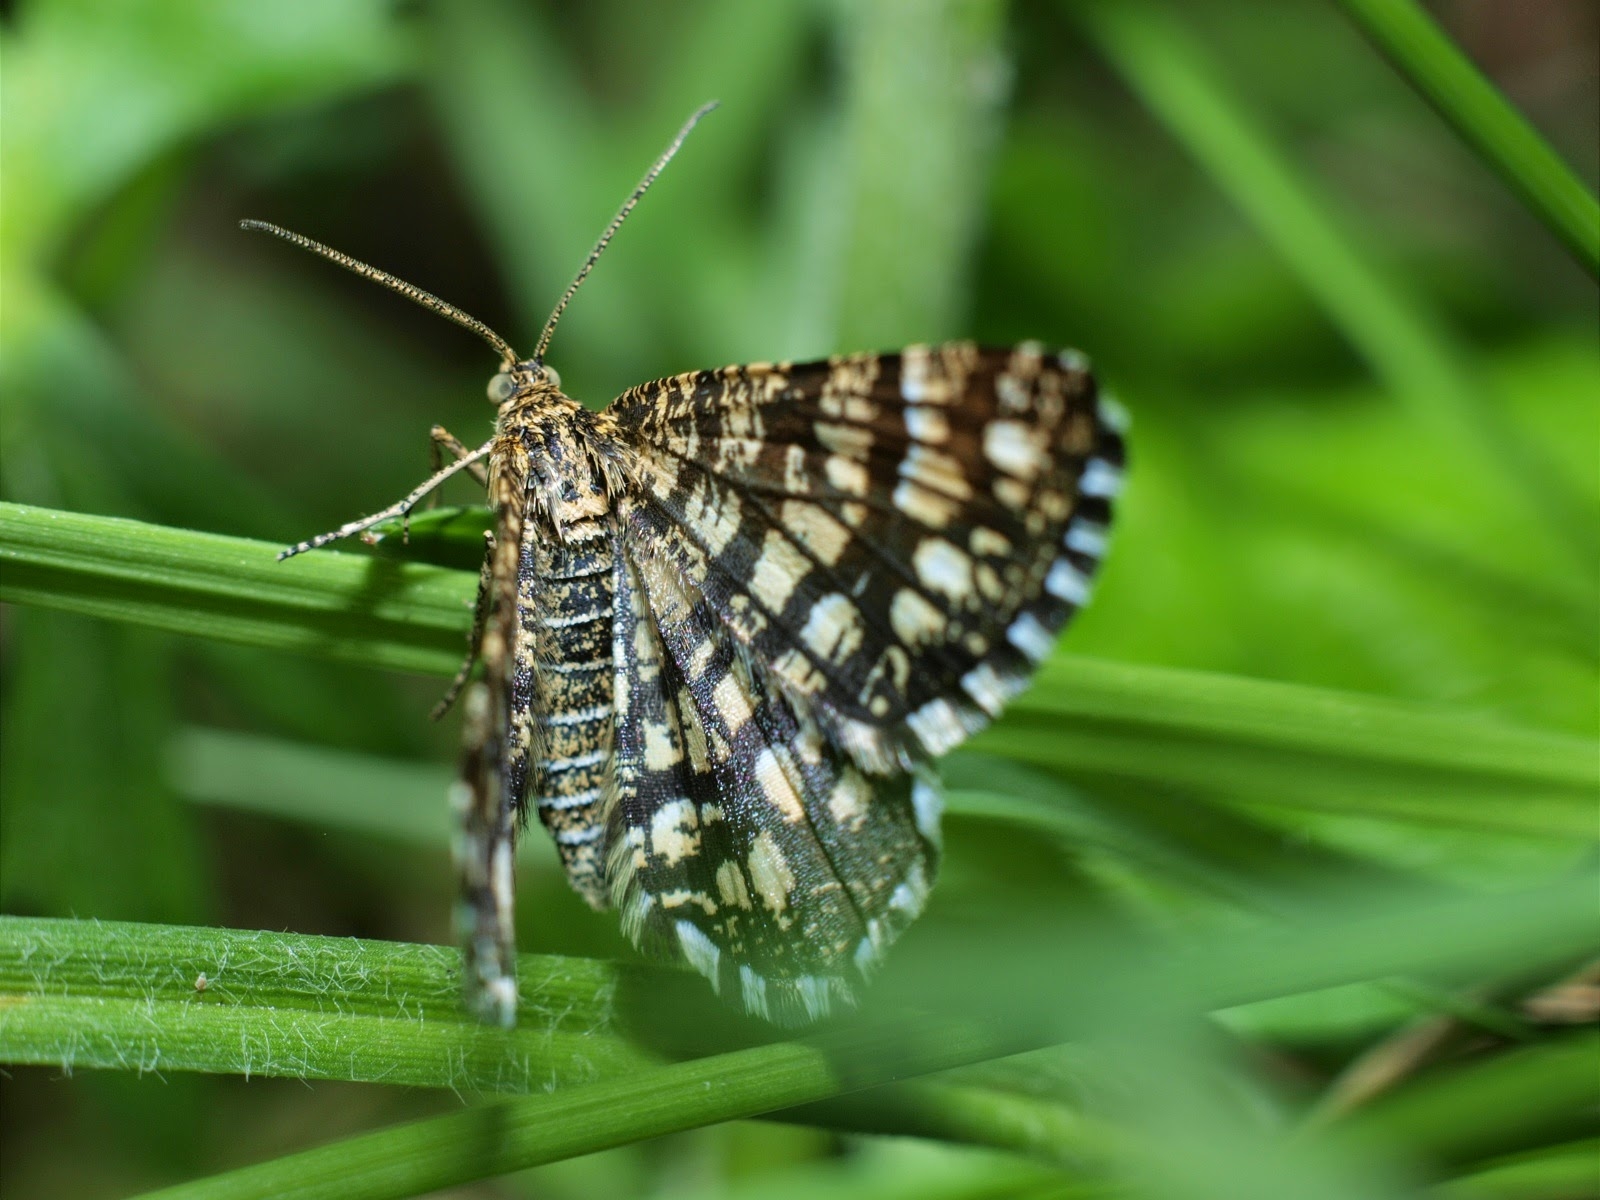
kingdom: Animalia
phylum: Arthropoda
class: Insecta
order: Lepidoptera
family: Geometridae
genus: Chiasmia
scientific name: Chiasmia clathrata
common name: Latticed heath
